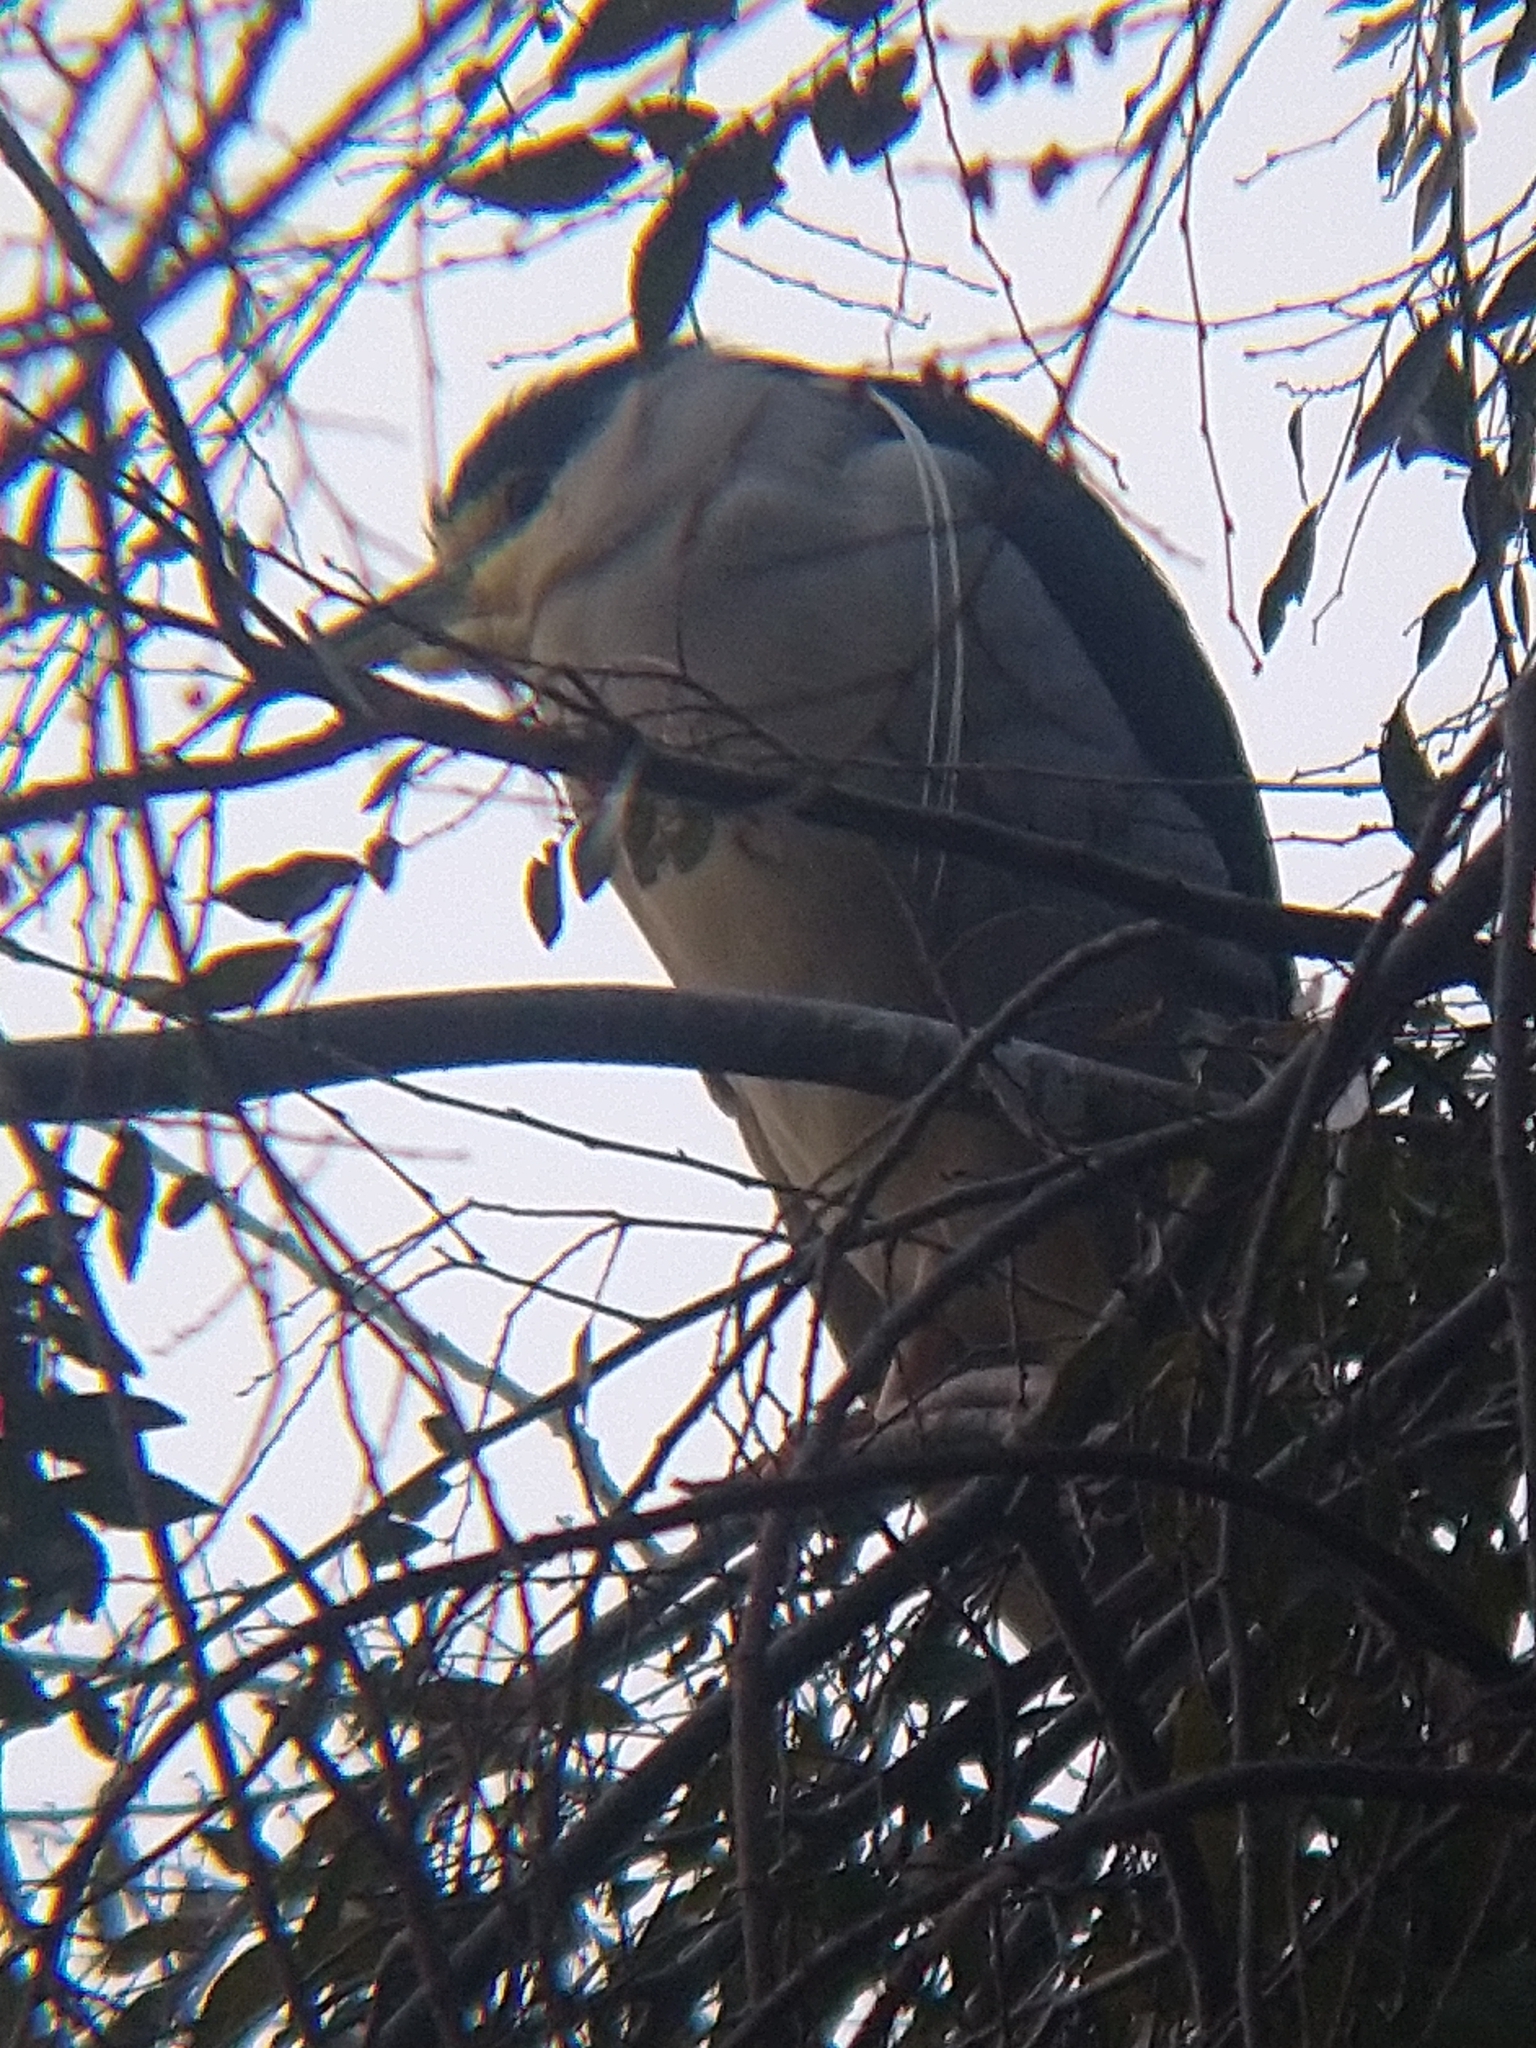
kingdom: Animalia
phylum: Chordata
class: Aves
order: Pelecaniformes
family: Ardeidae
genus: Nycticorax
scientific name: Nycticorax nycticorax
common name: Black-crowned night heron
